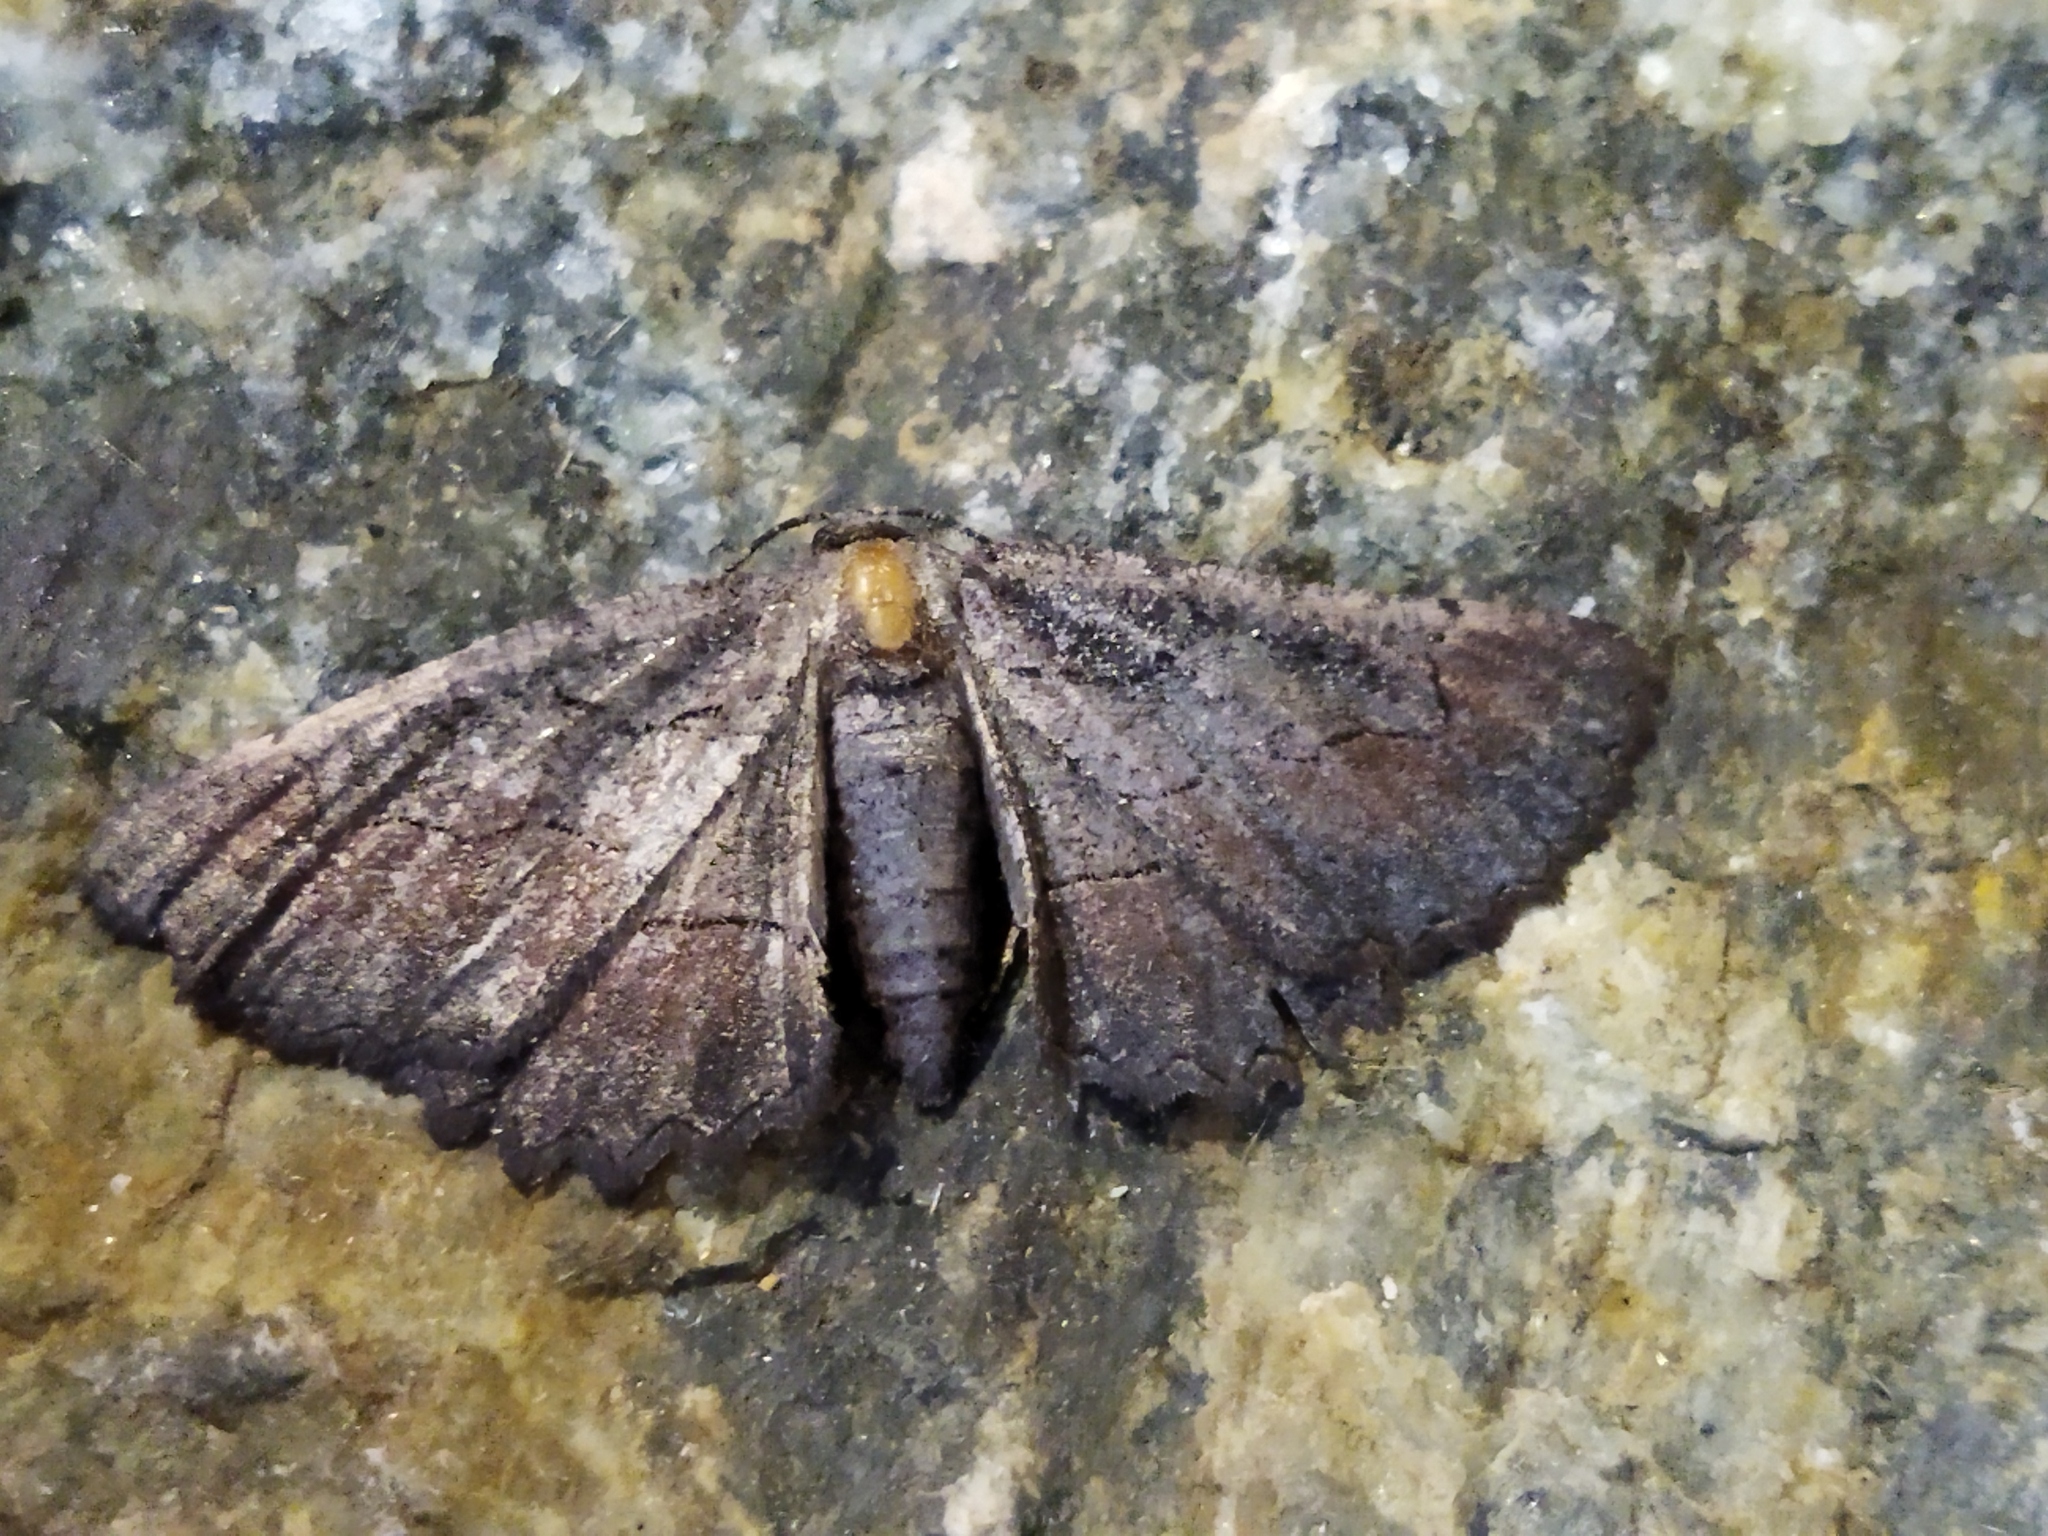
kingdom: Animalia
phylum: Arthropoda
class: Insecta
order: Lepidoptera
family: Geometridae
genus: Nychiodes
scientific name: Nychiodes waltheri
